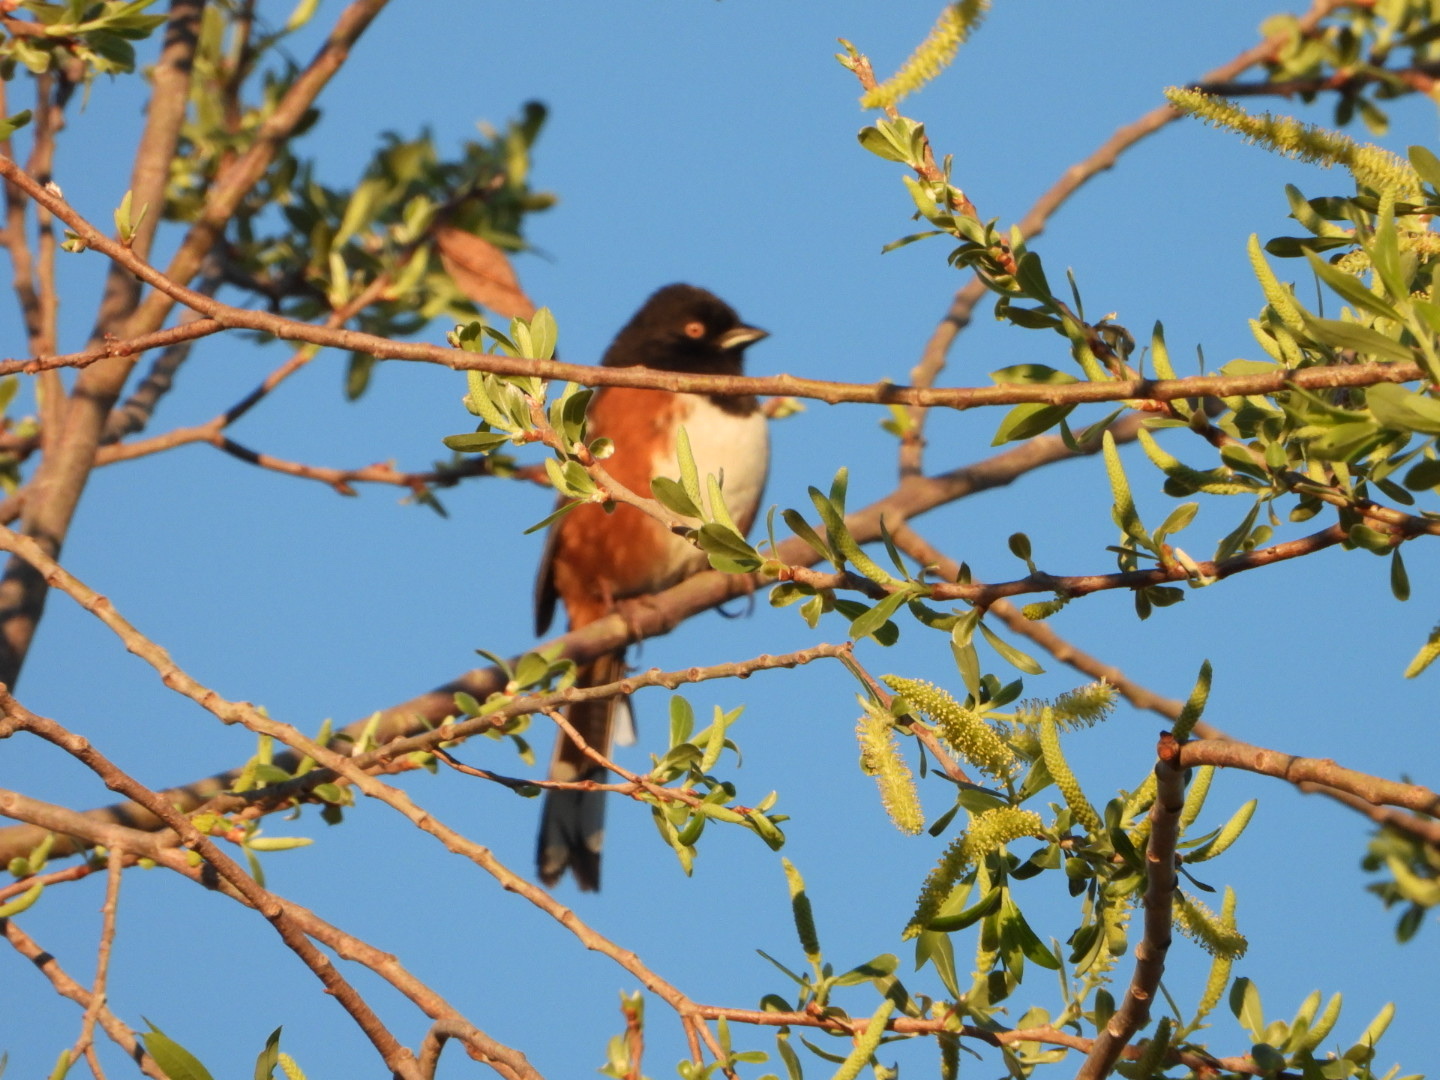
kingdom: Animalia
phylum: Chordata
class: Aves
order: Passeriformes
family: Passerellidae
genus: Pipilo
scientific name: Pipilo maculatus
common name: Spotted towhee
